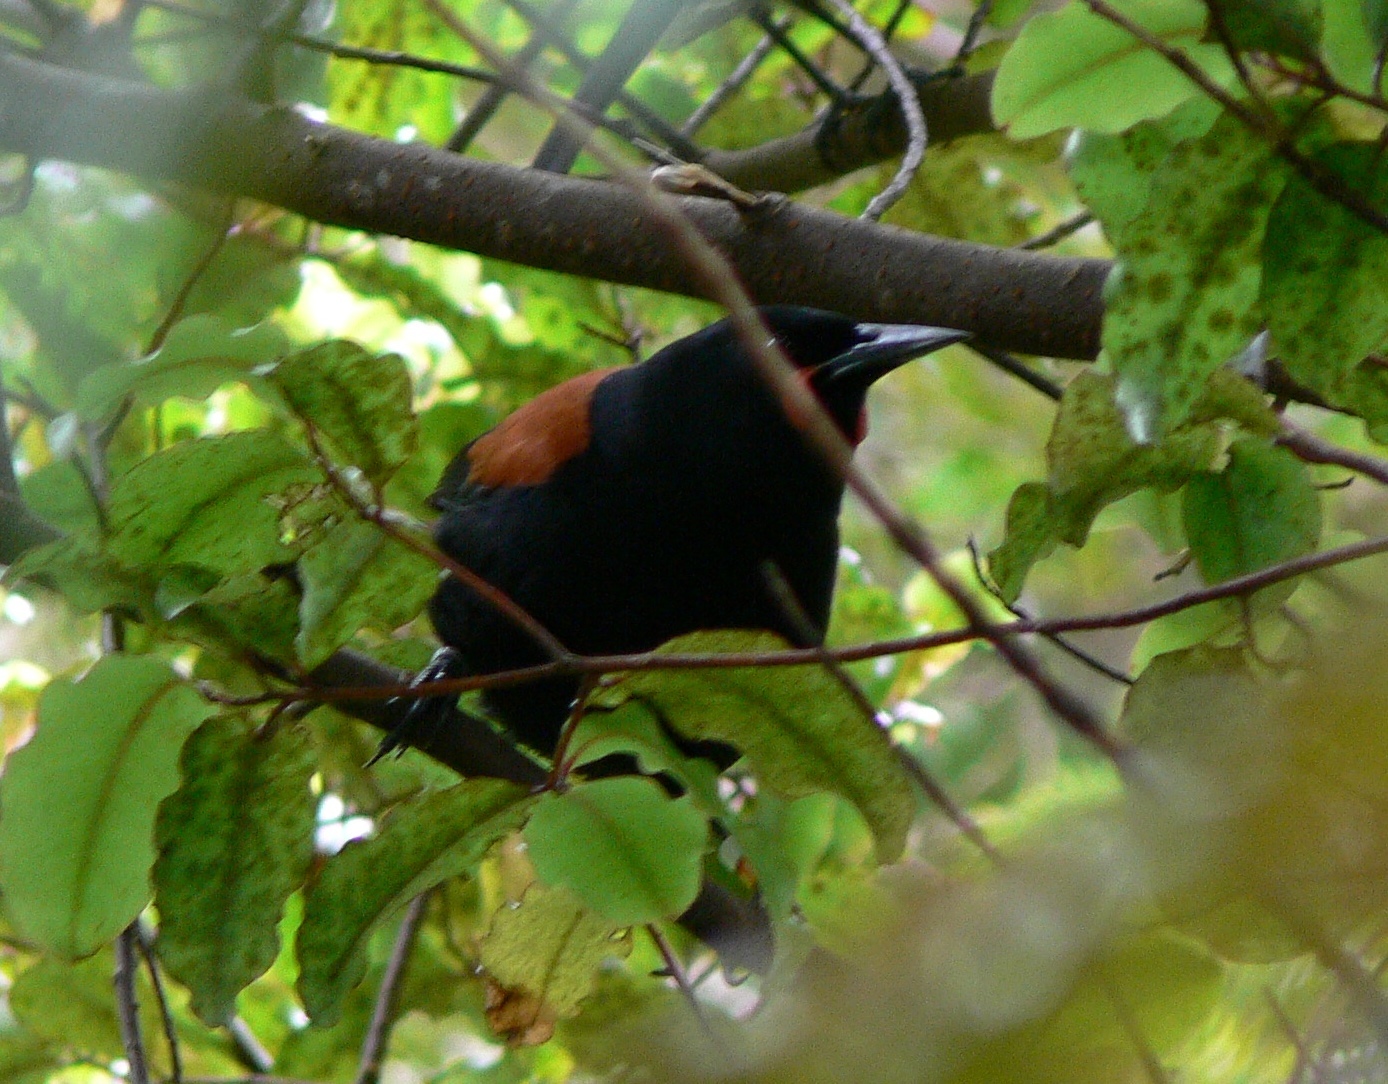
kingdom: Animalia
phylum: Chordata
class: Aves
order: Passeriformes
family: Callaeatidae
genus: Philesturnus
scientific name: Philesturnus carunculatus
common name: South island saddleback
